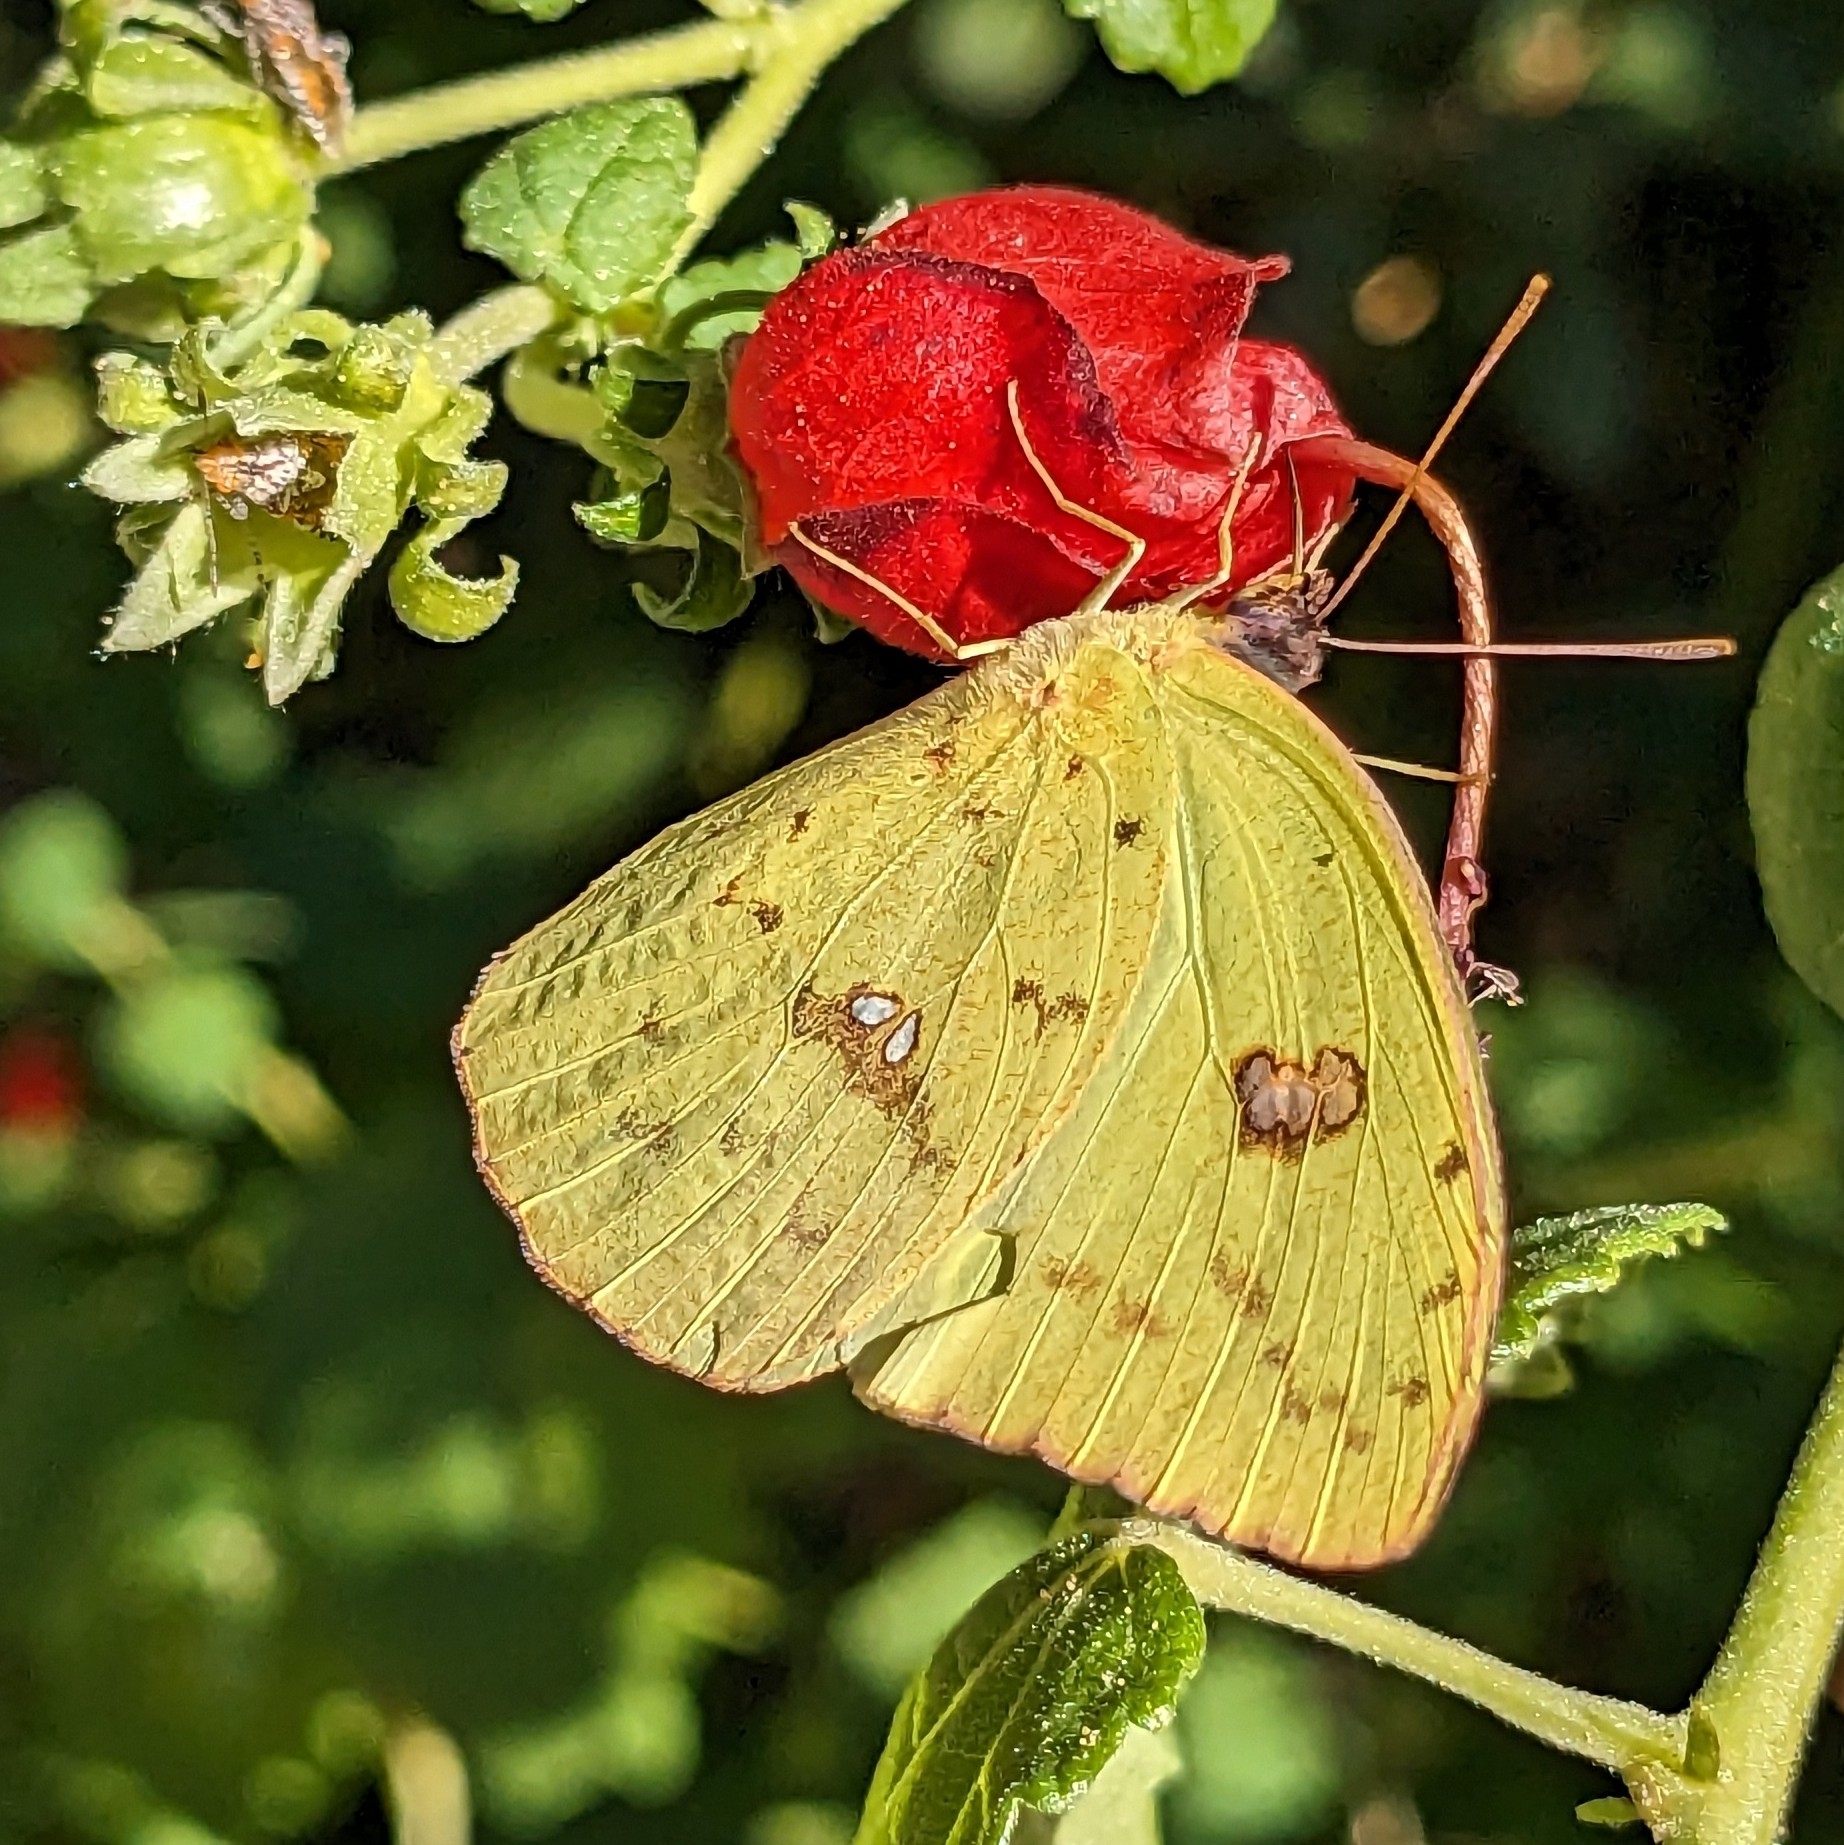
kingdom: Animalia
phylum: Arthropoda
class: Insecta
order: Lepidoptera
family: Pieridae
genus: Phoebis
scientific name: Phoebis sennae
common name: Cloudless sulphur
